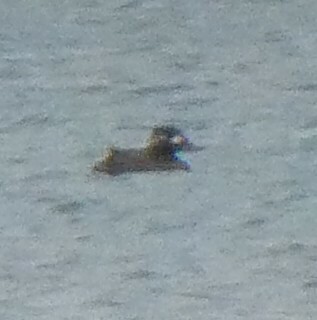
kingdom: Animalia
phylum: Chordata
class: Aves
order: Anseriformes
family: Anatidae
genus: Melanitta
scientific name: Melanitta fusca
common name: Velvet scoter
